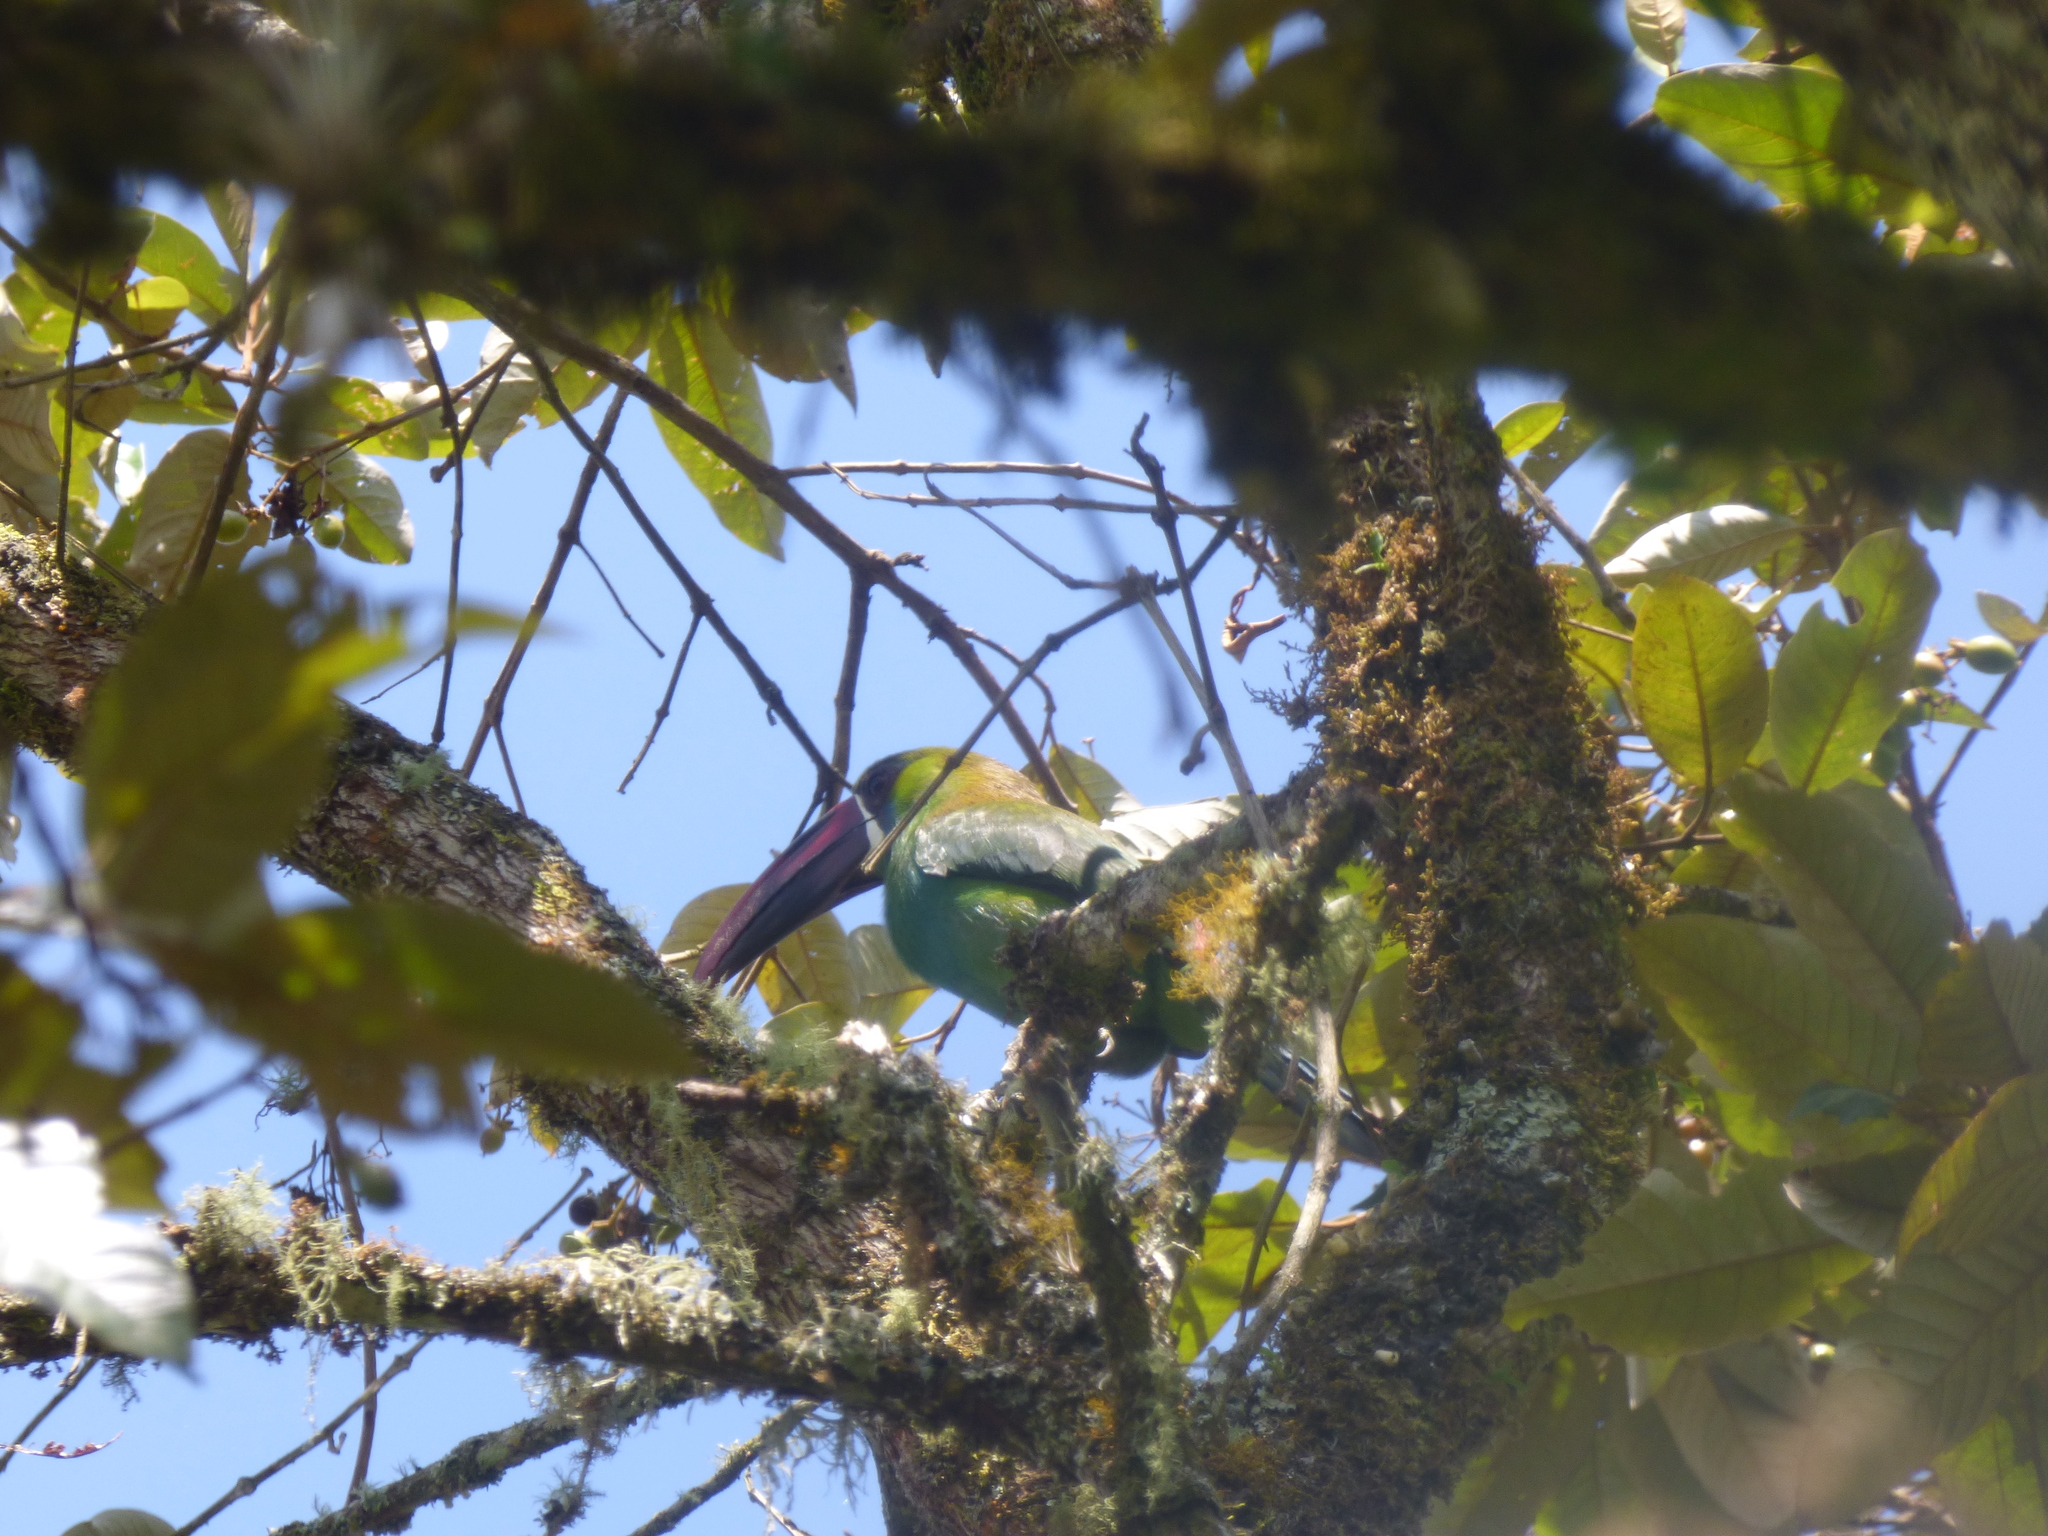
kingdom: Animalia
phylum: Chordata
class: Aves
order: Piciformes
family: Ramphastidae
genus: Aulacorhynchus
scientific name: Aulacorhynchus haematopygus
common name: Crimson-rumped toucanet
